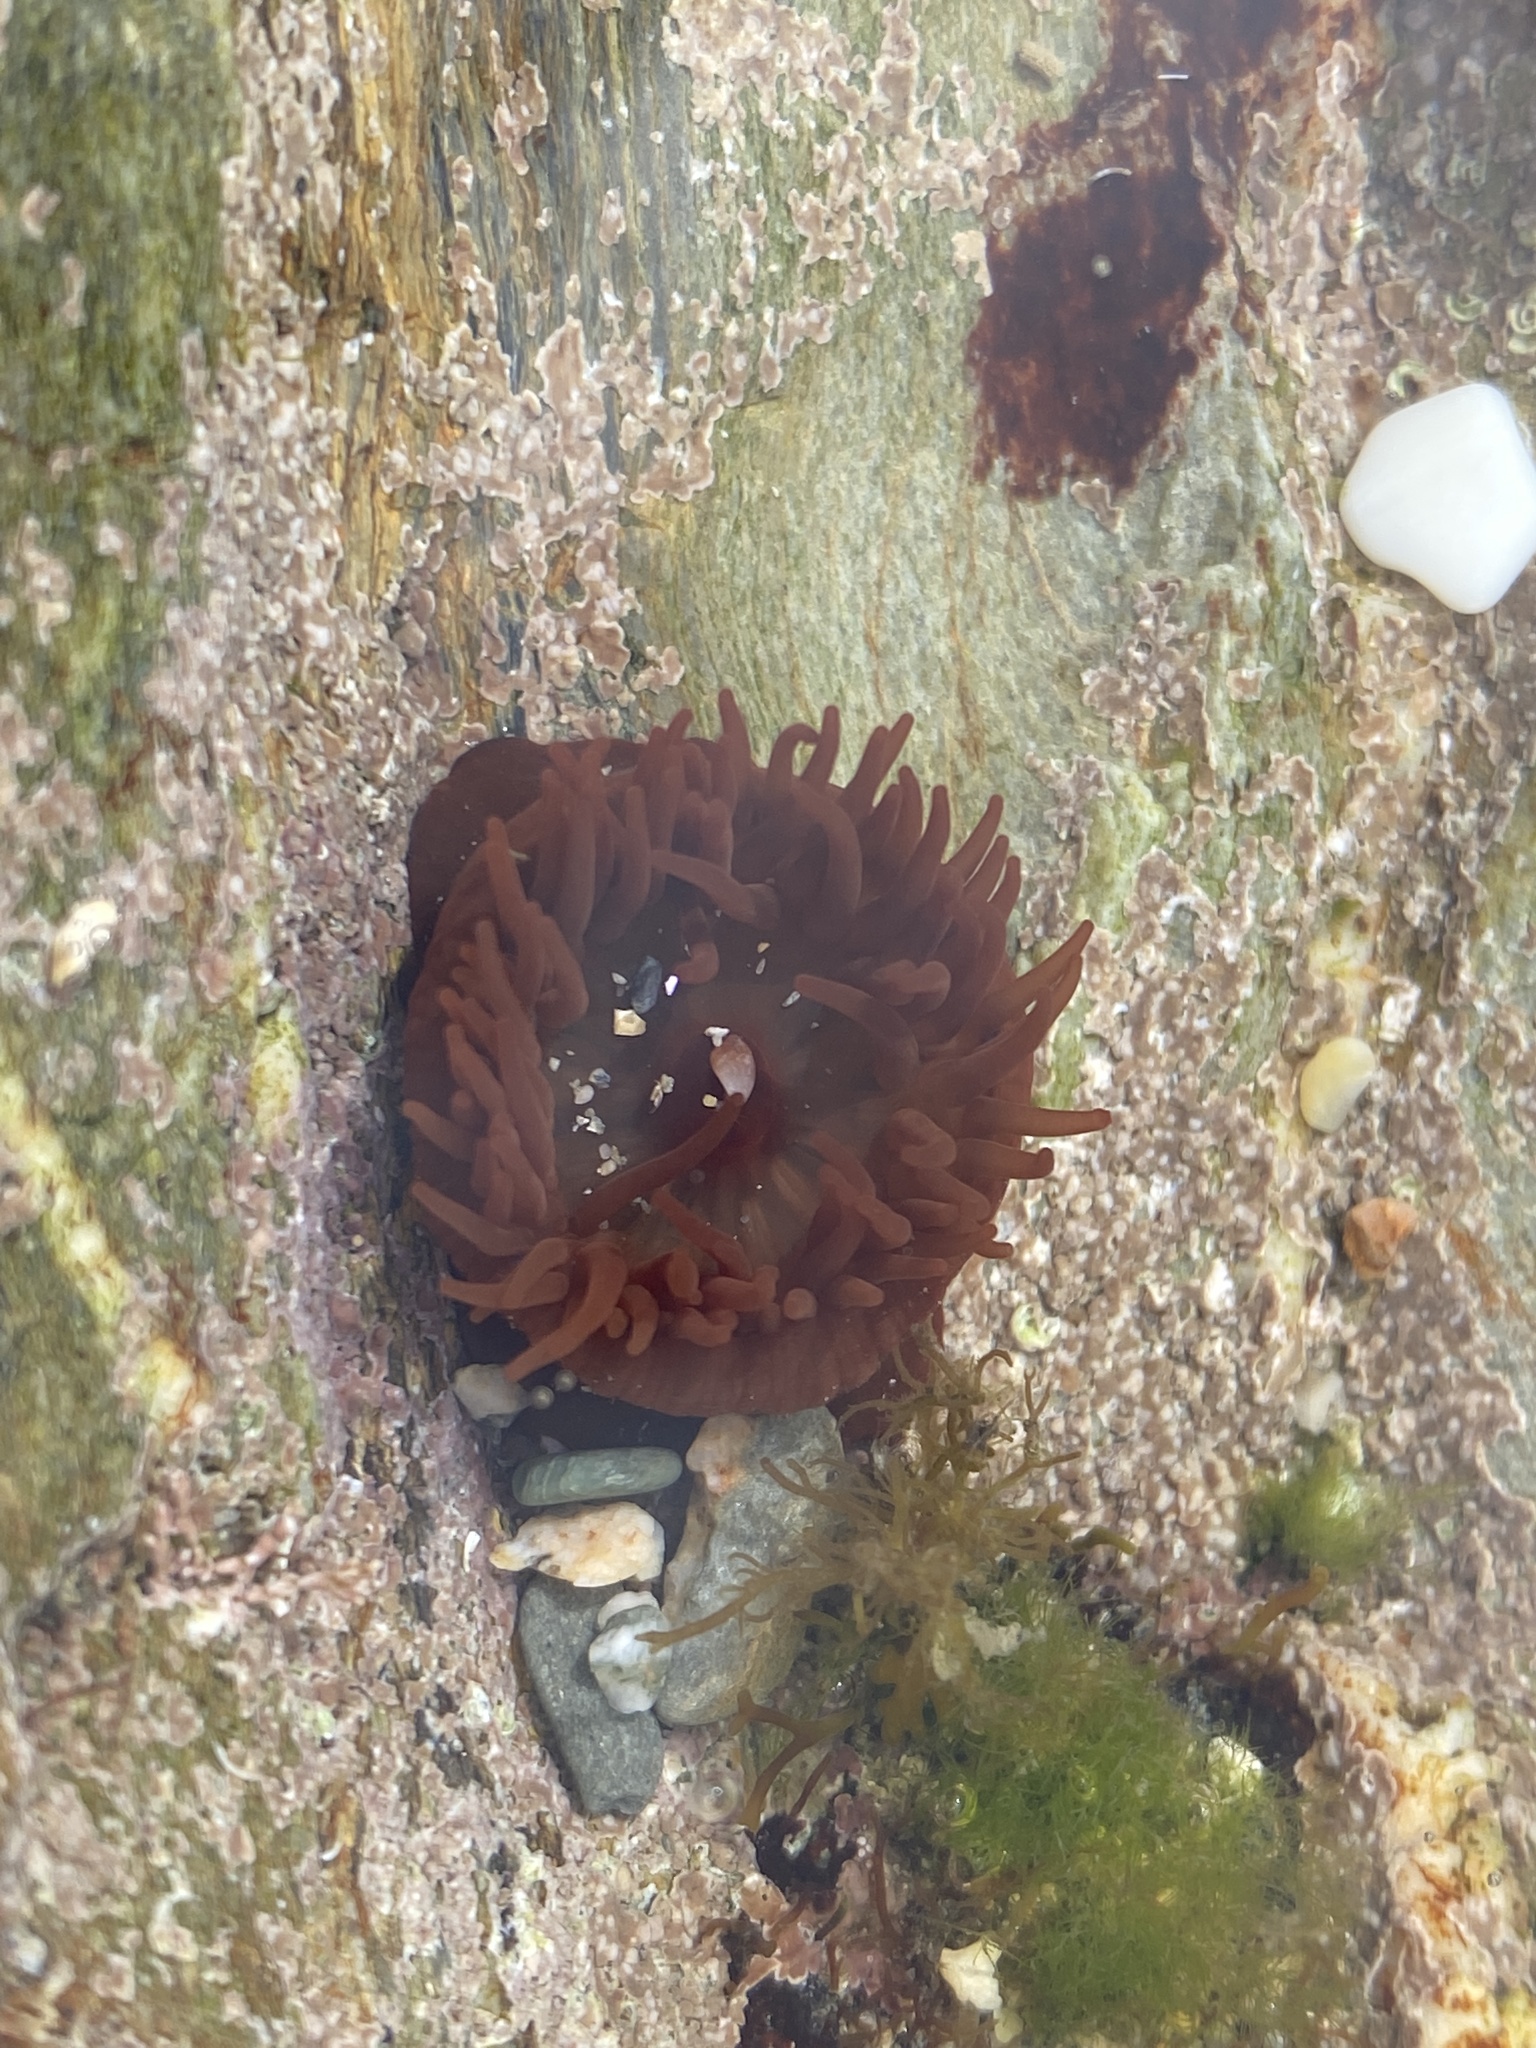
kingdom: Animalia
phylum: Cnidaria
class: Anthozoa
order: Actiniaria
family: Actiniidae
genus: Actinia
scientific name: Actinia equina
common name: Beadlet anemone
